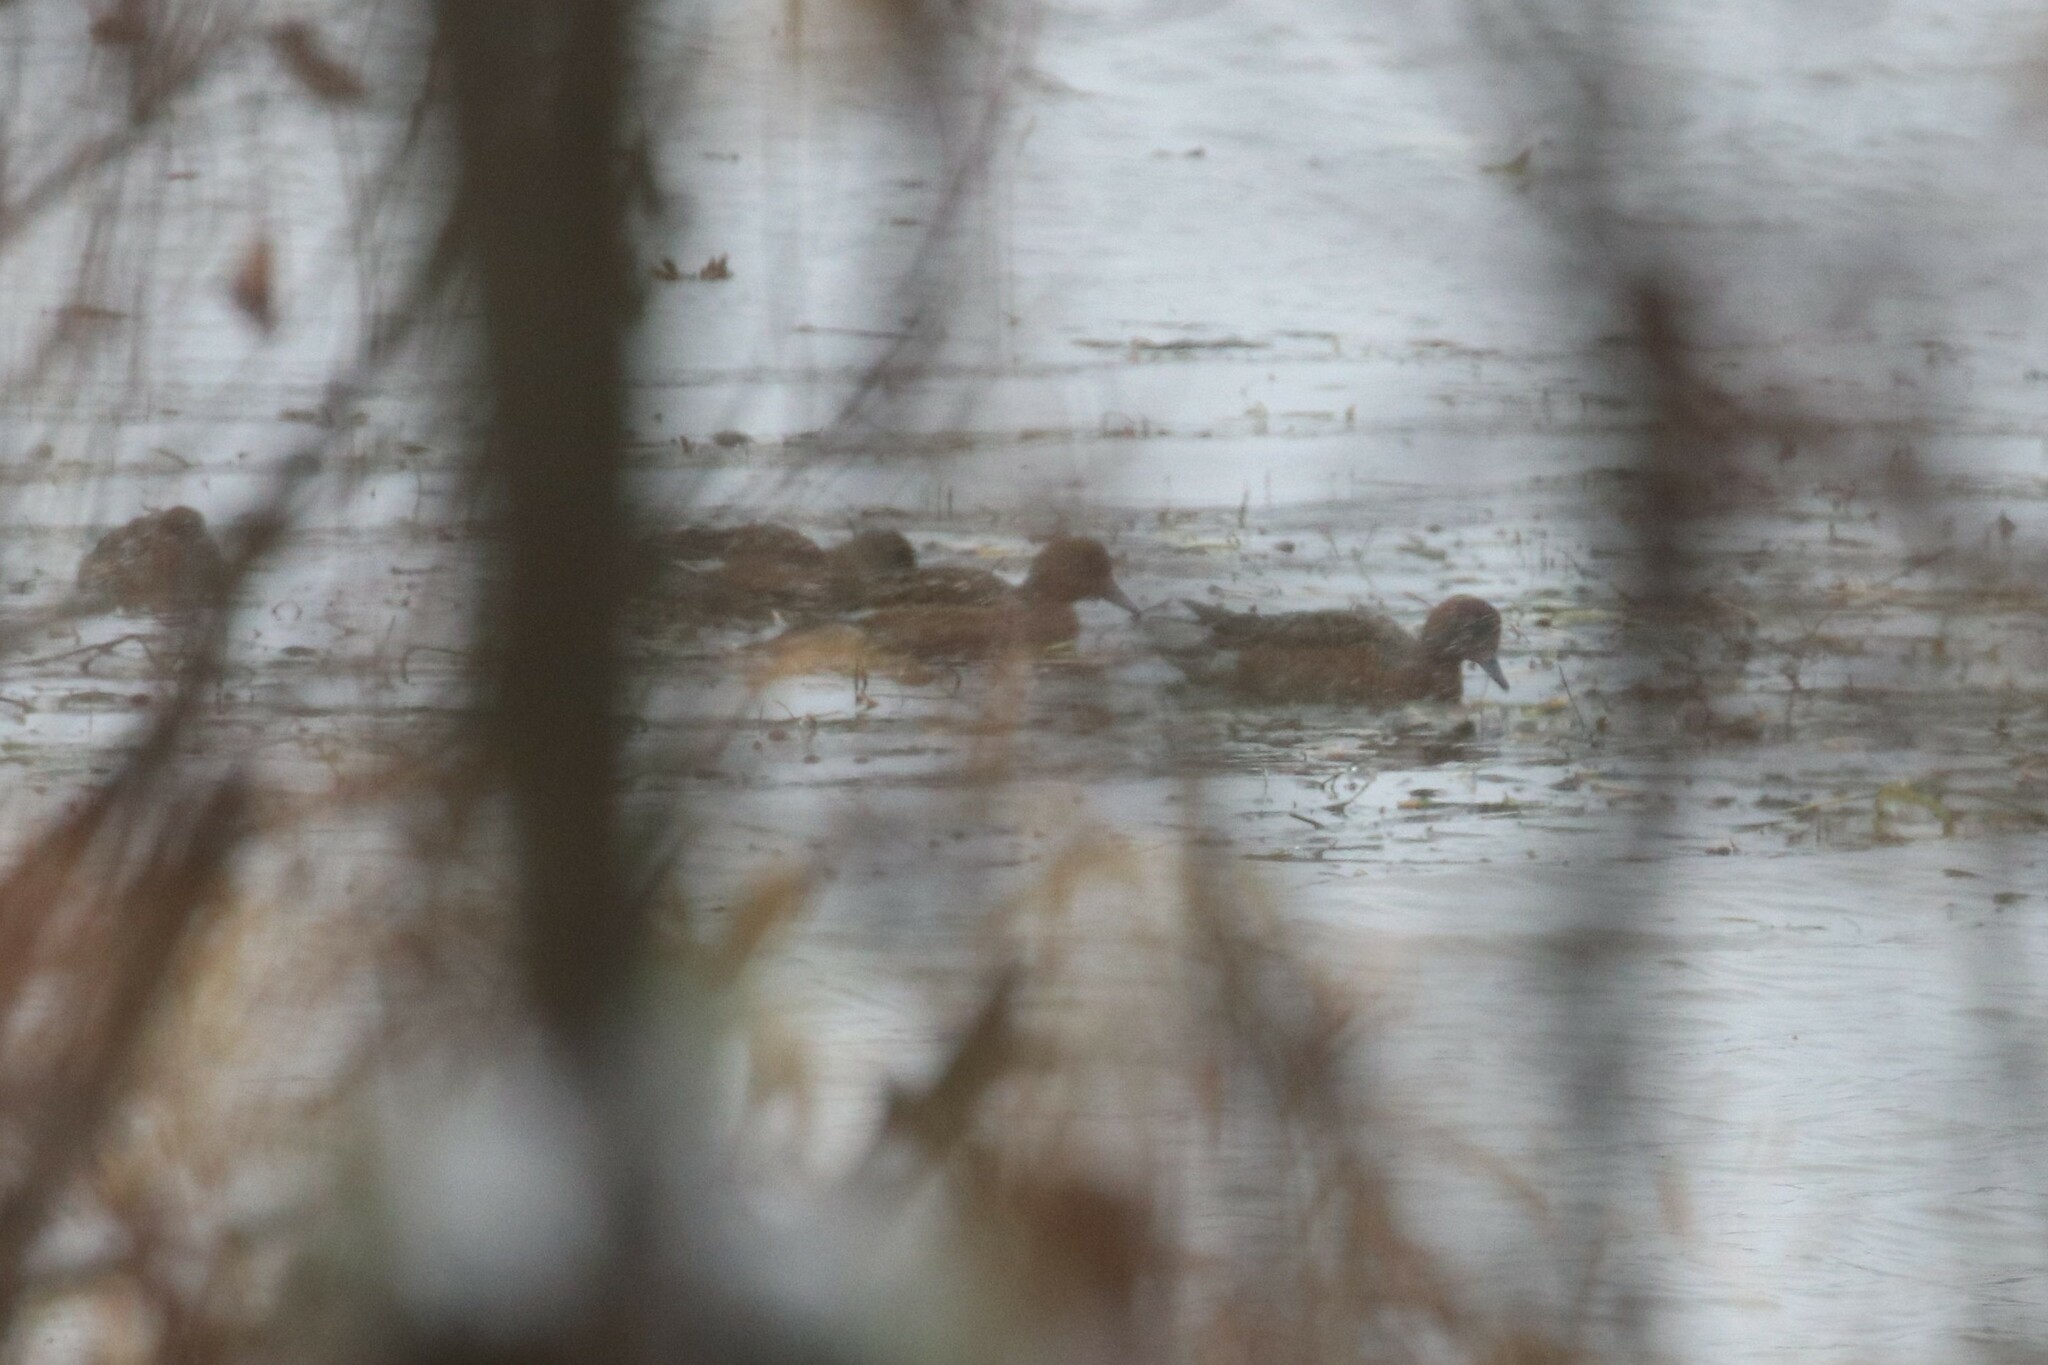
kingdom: Animalia
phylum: Chordata
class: Aves
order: Anseriformes
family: Anatidae
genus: Mareca
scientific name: Mareca penelope
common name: Eurasian wigeon
